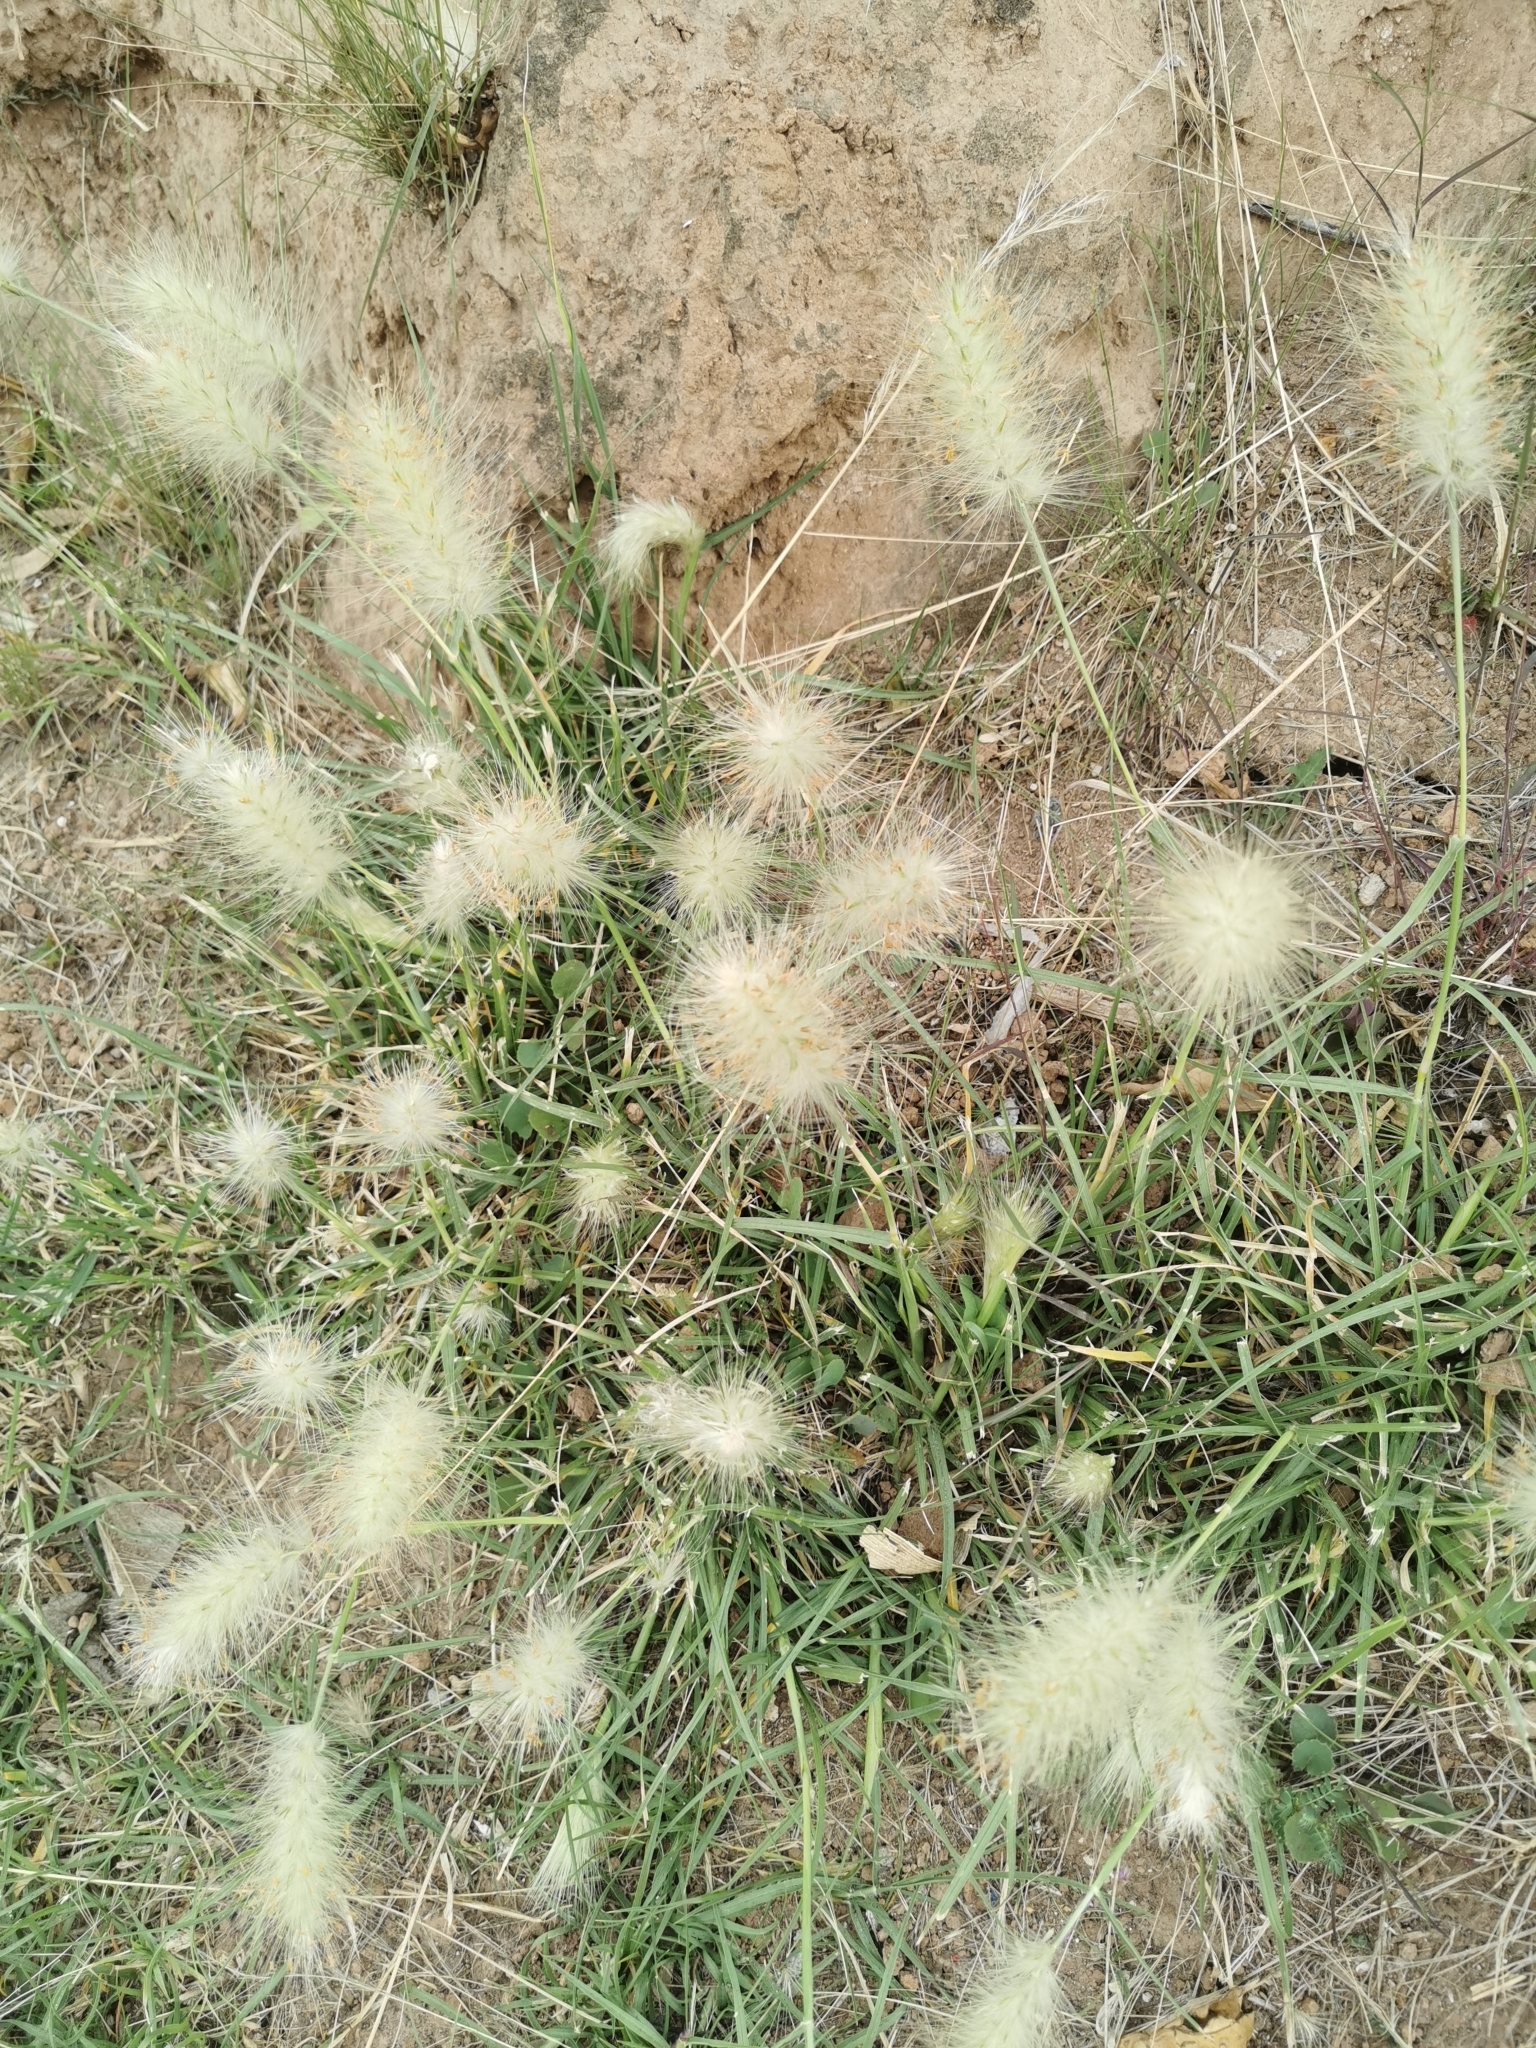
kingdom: Plantae
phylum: Tracheophyta
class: Liliopsida
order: Poales
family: Poaceae
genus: Cenchrus
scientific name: Cenchrus longisetus
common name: Feathertop
